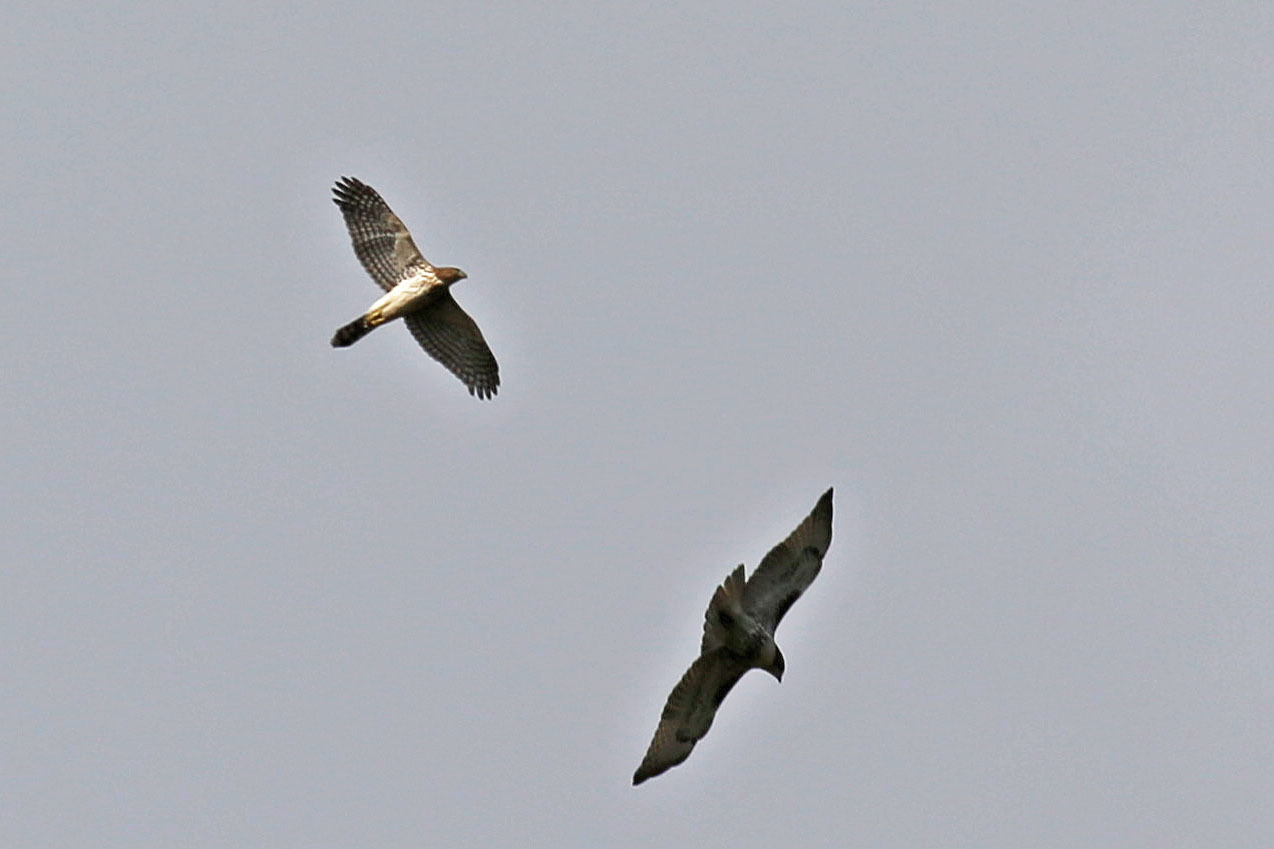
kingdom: Animalia
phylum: Chordata
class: Aves
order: Accipitriformes
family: Accipitridae
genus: Accipiter
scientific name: Accipiter cooperii
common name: Cooper's hawk
